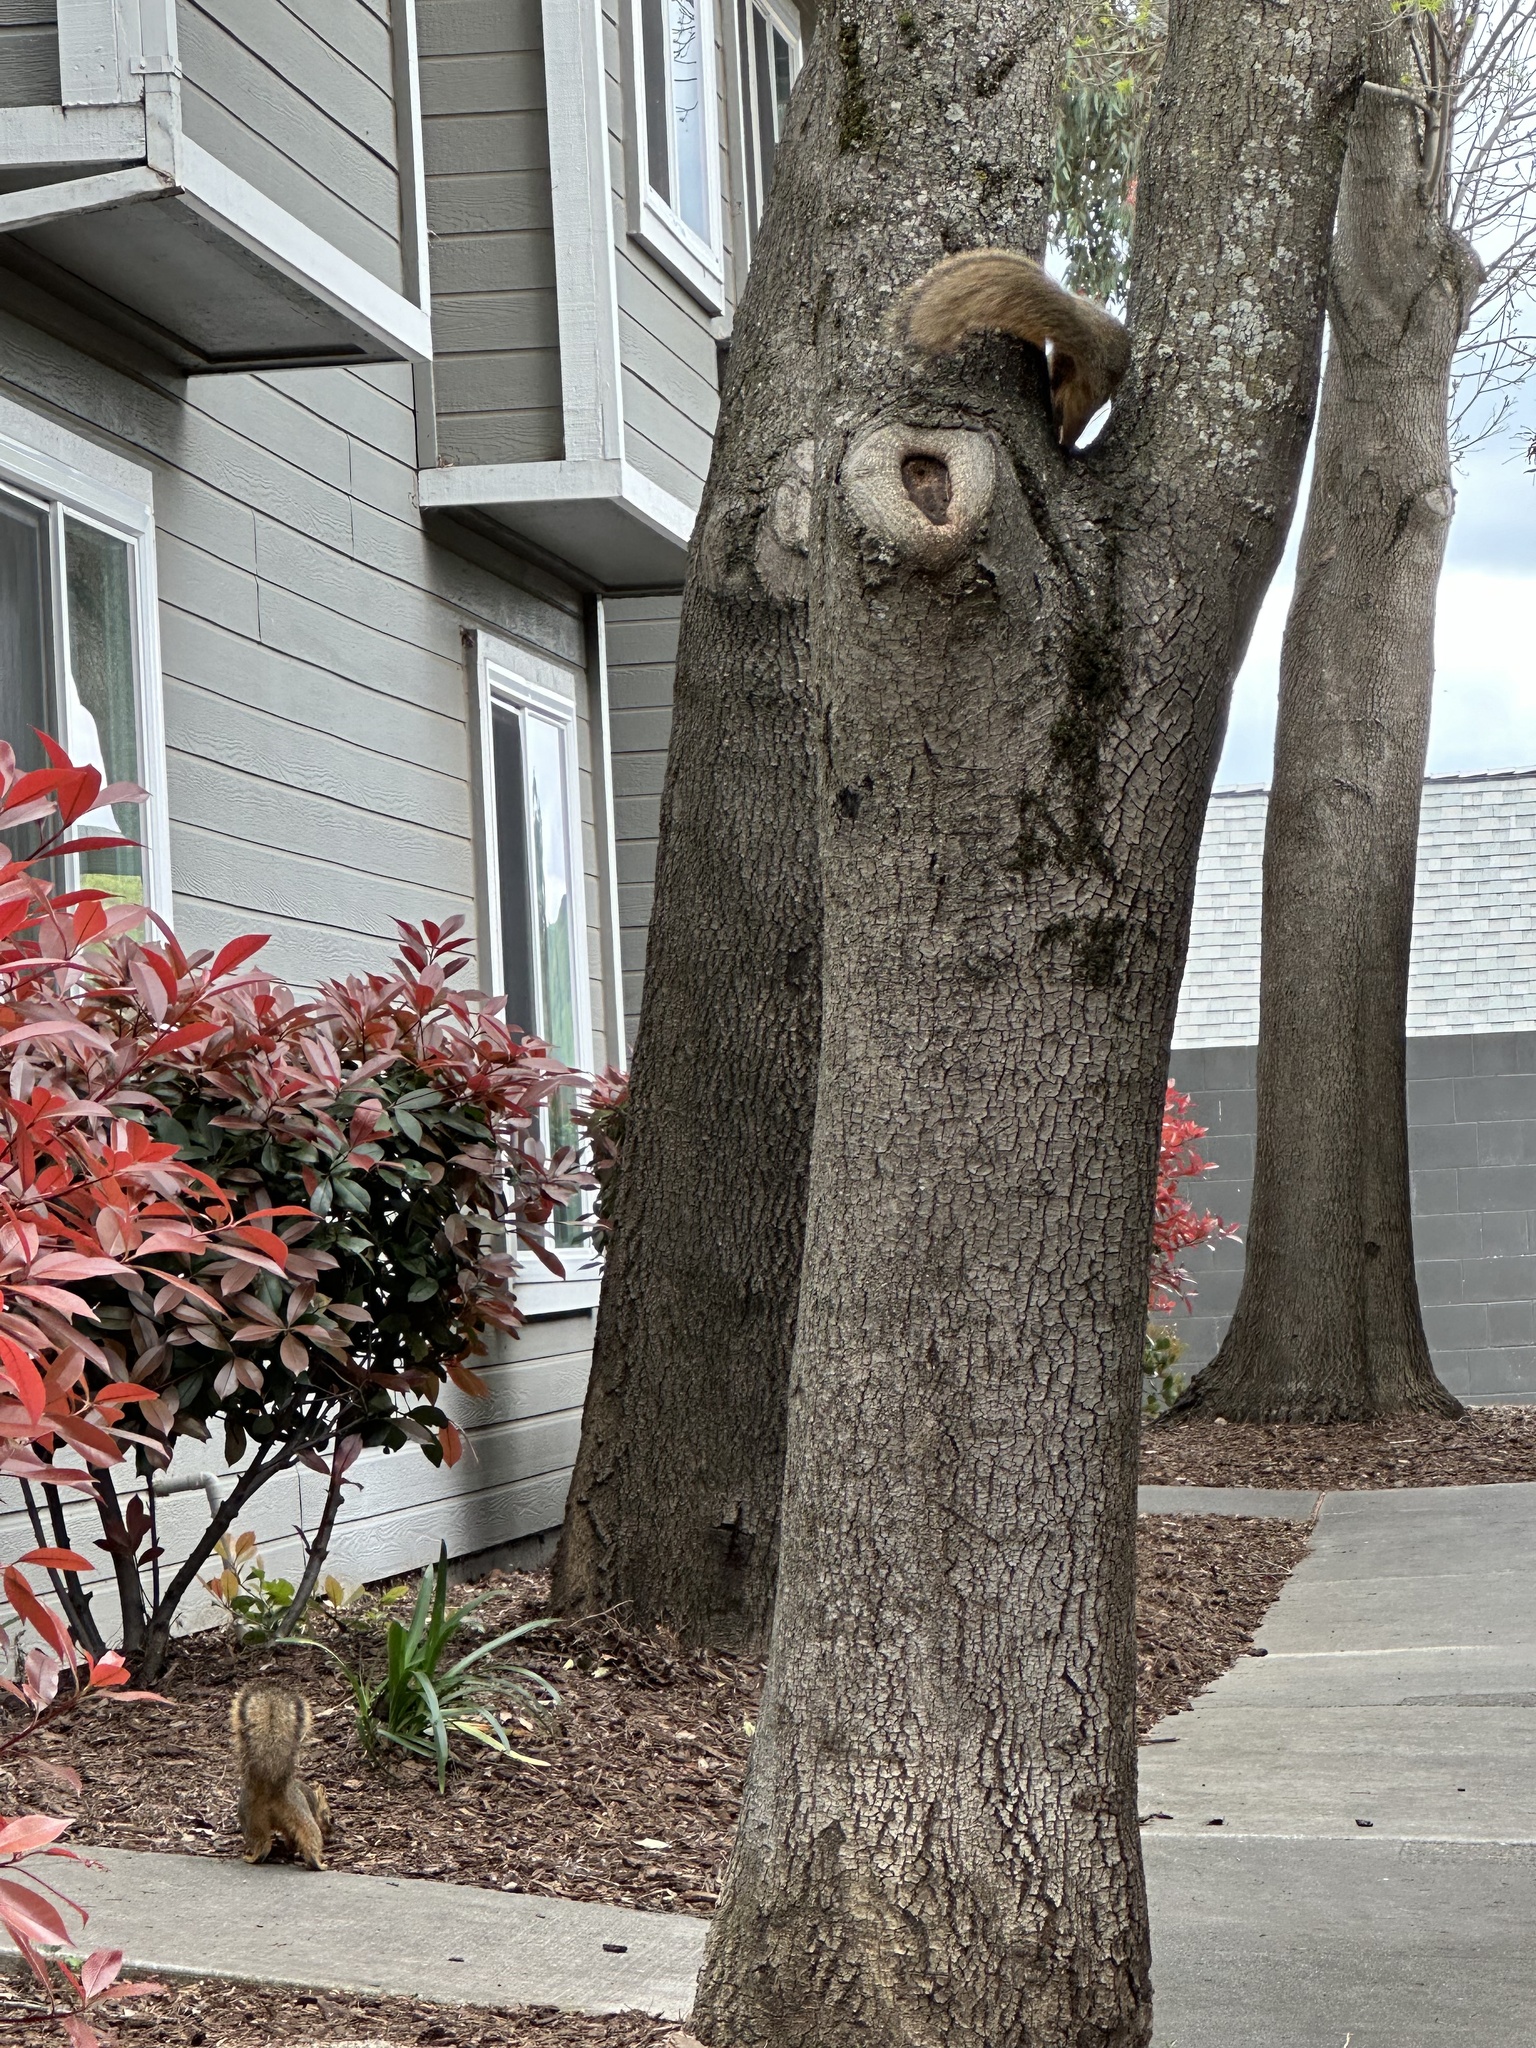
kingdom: Animalia
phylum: Chordata
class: Mammalia
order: Rodentia
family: Sciuridae
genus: Sciurus
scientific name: Sciurus niger
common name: Fox squirrel
